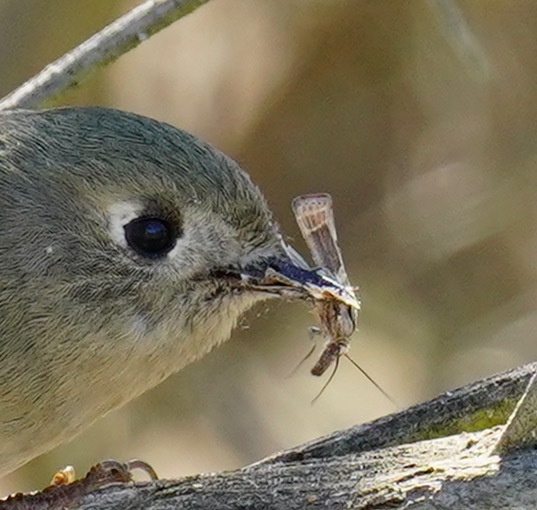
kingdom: Animalia
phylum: Chordata
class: Aves
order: Passeriformes
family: Regulidae
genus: Regulus
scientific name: Regulus calendula
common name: Ruby-crowned kinglet
